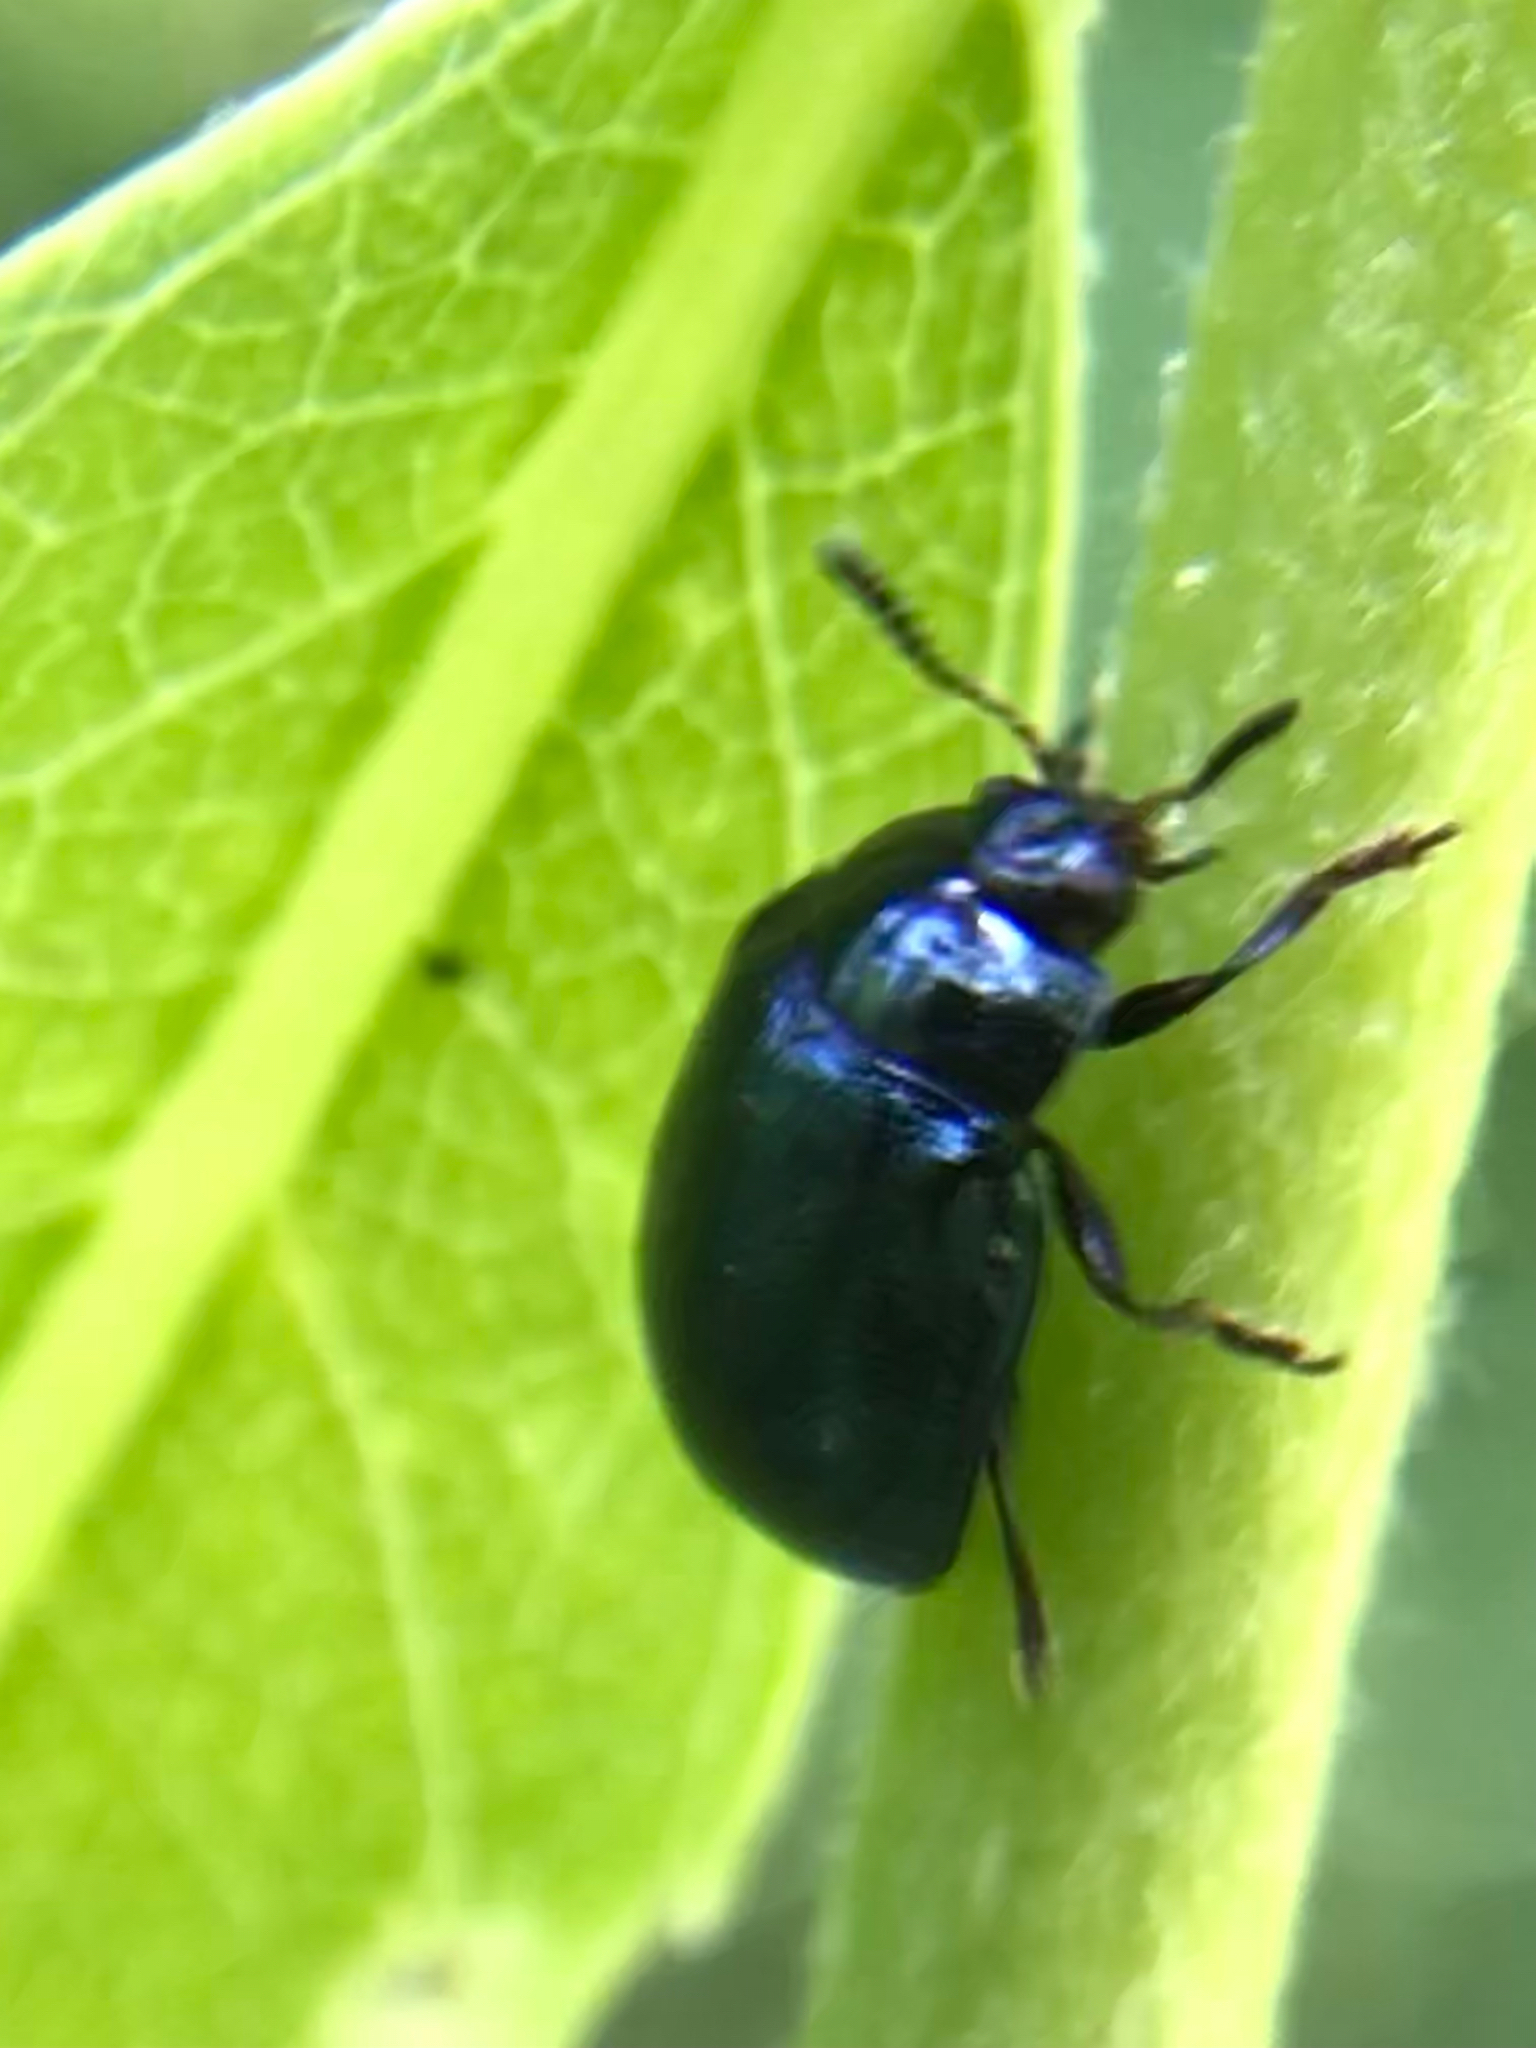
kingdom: Animalia
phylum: Arthropoda
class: Insecta
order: Coleoptera
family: Chrysomelidae
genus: Plagiodera
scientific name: Plagiodera versicolora
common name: Imported willow leaf beetle
